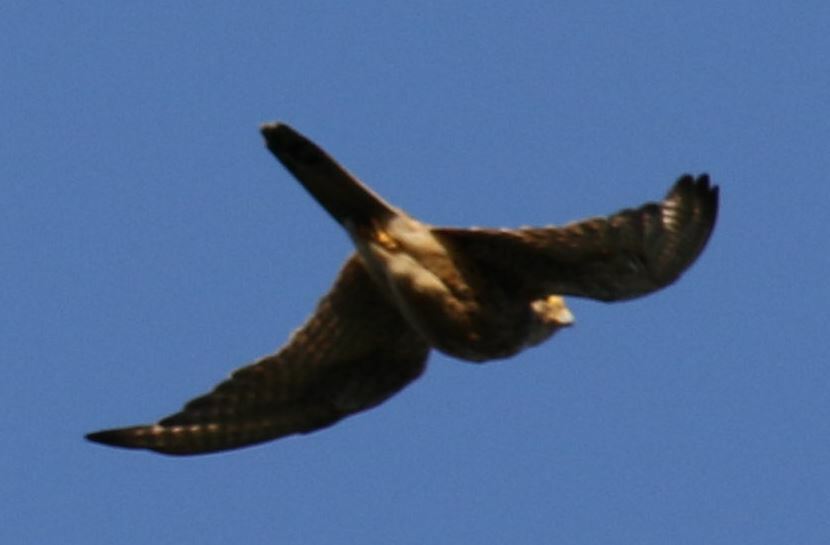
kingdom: Animalia
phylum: Chordata
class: Aves
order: Falconiformes
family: Falconidae
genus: Falco
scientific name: Falco tinnunculus
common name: Common kestrel
